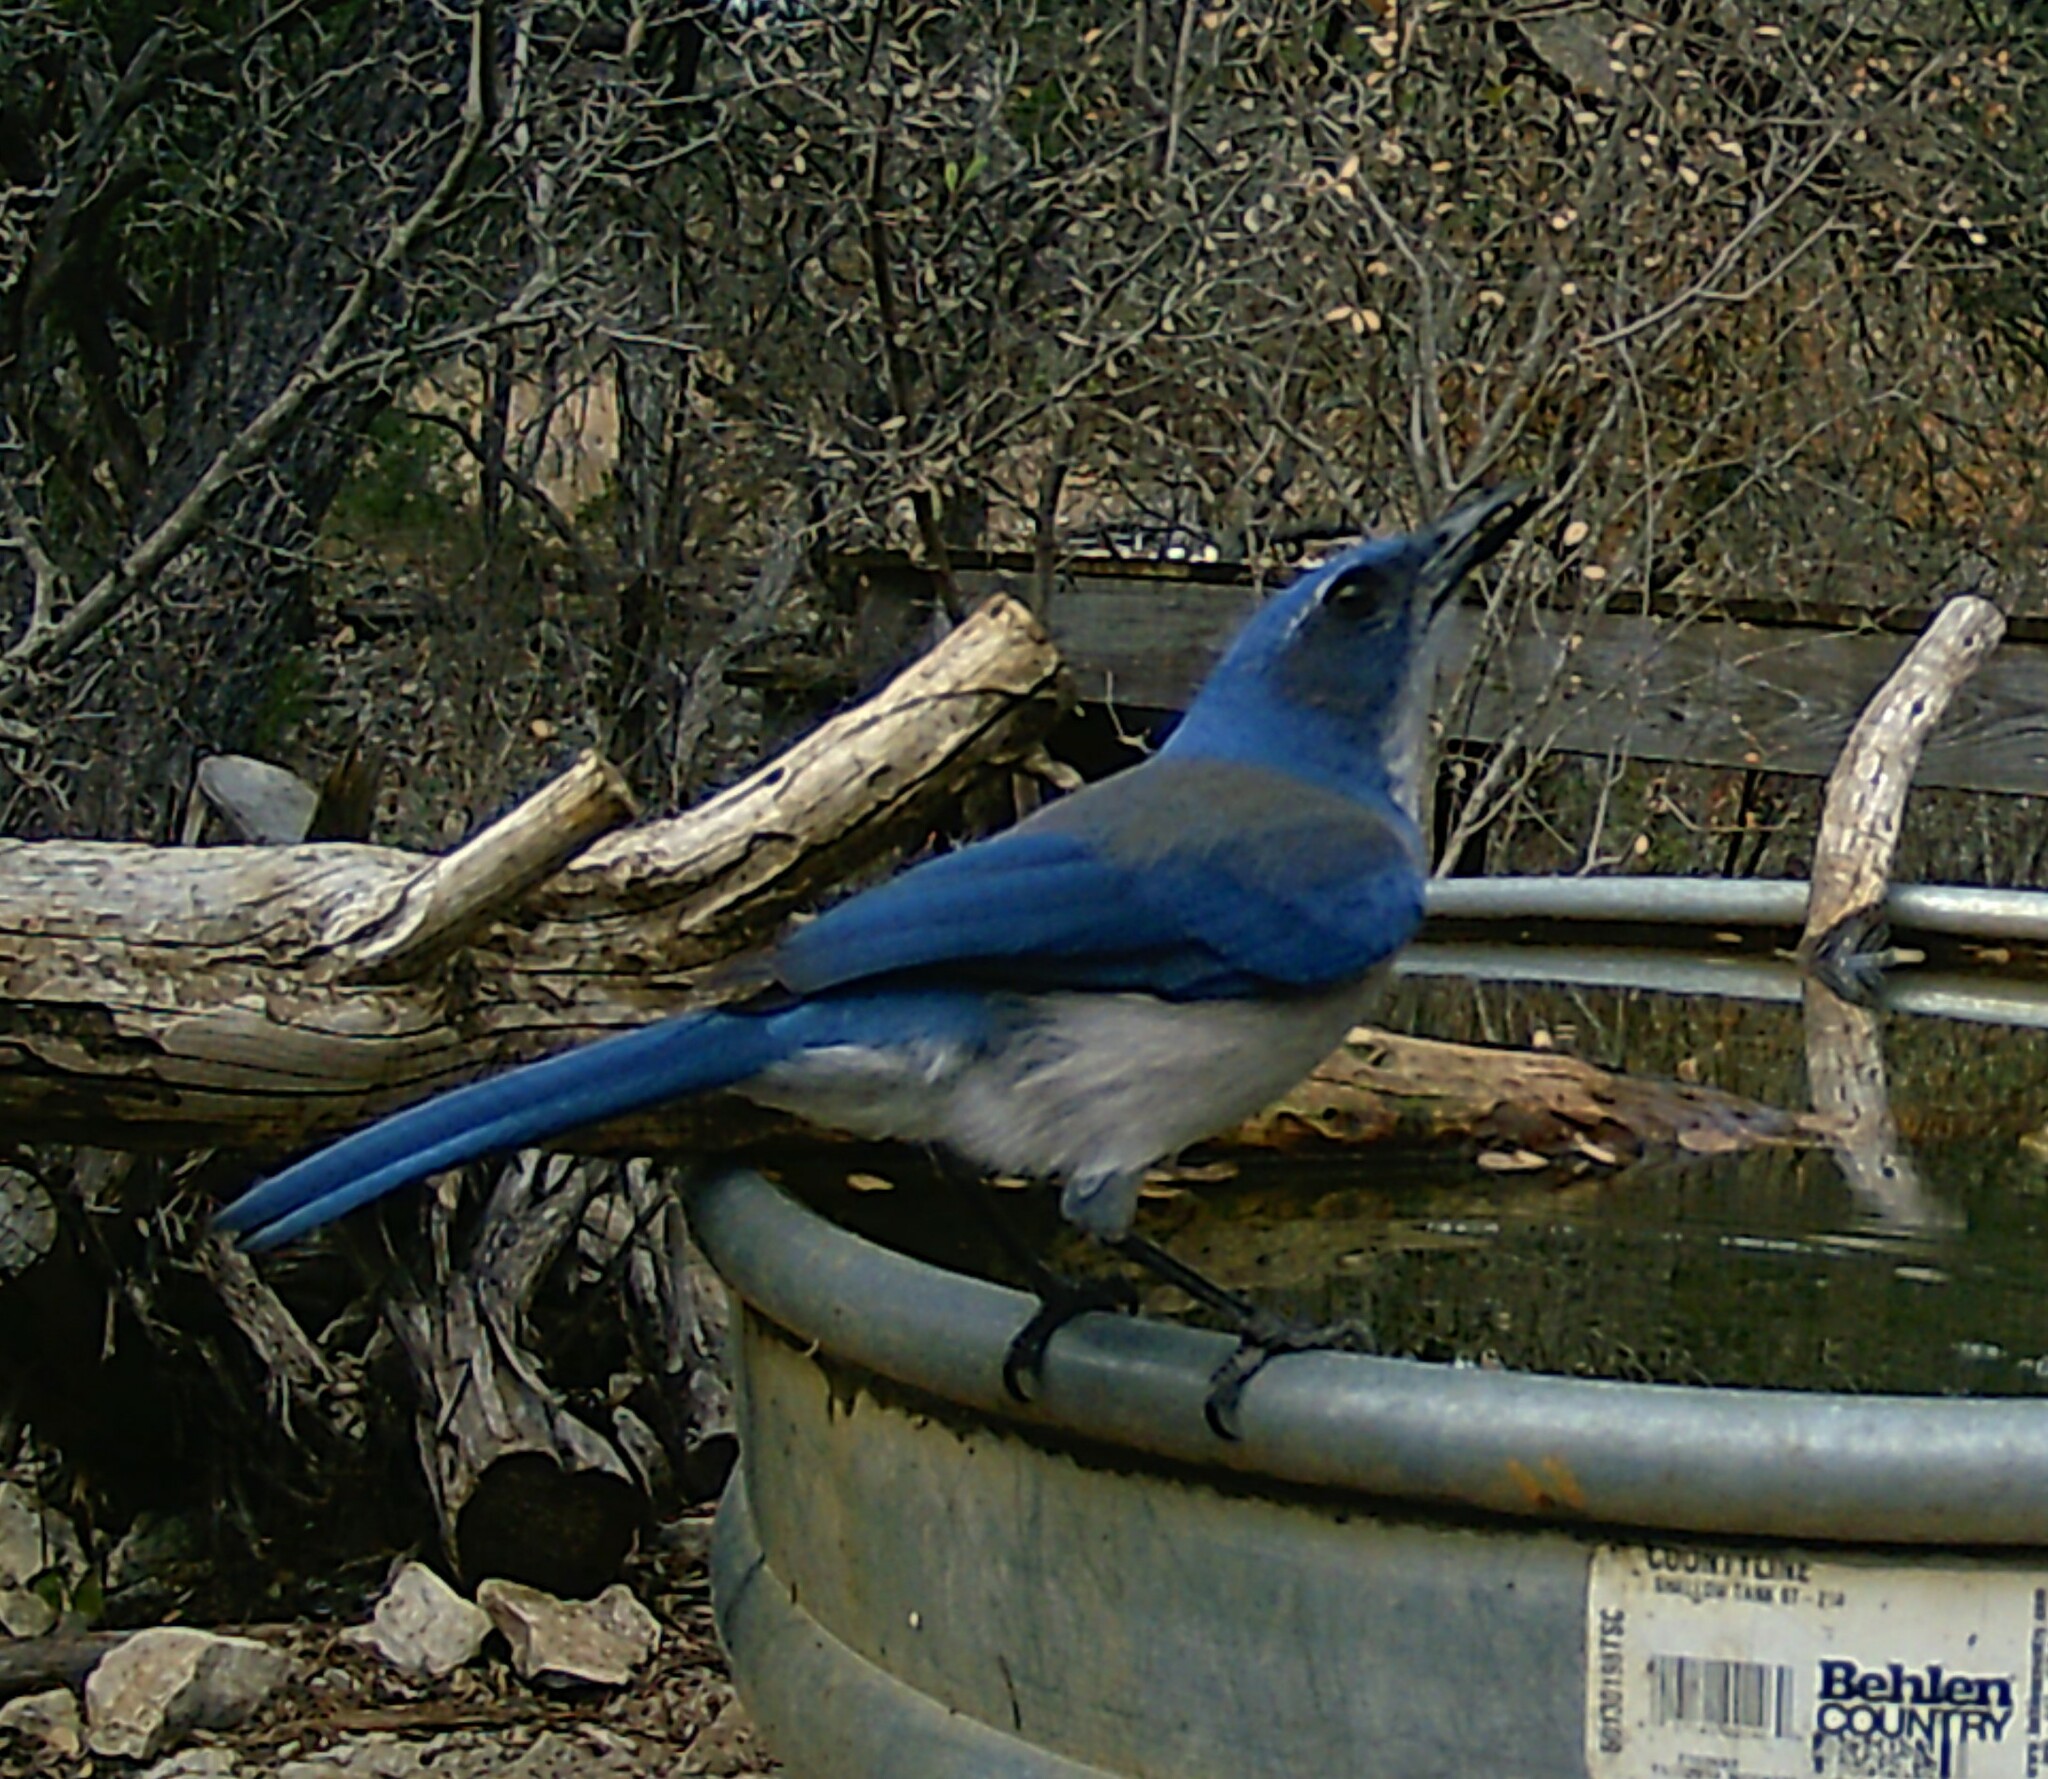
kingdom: Animalia
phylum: Chordata
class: Aves
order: Passeriformes
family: Corvidae
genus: Aphelocoma
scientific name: Aphelocoma woodhouseii
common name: Woodhouse's scrub-jay
